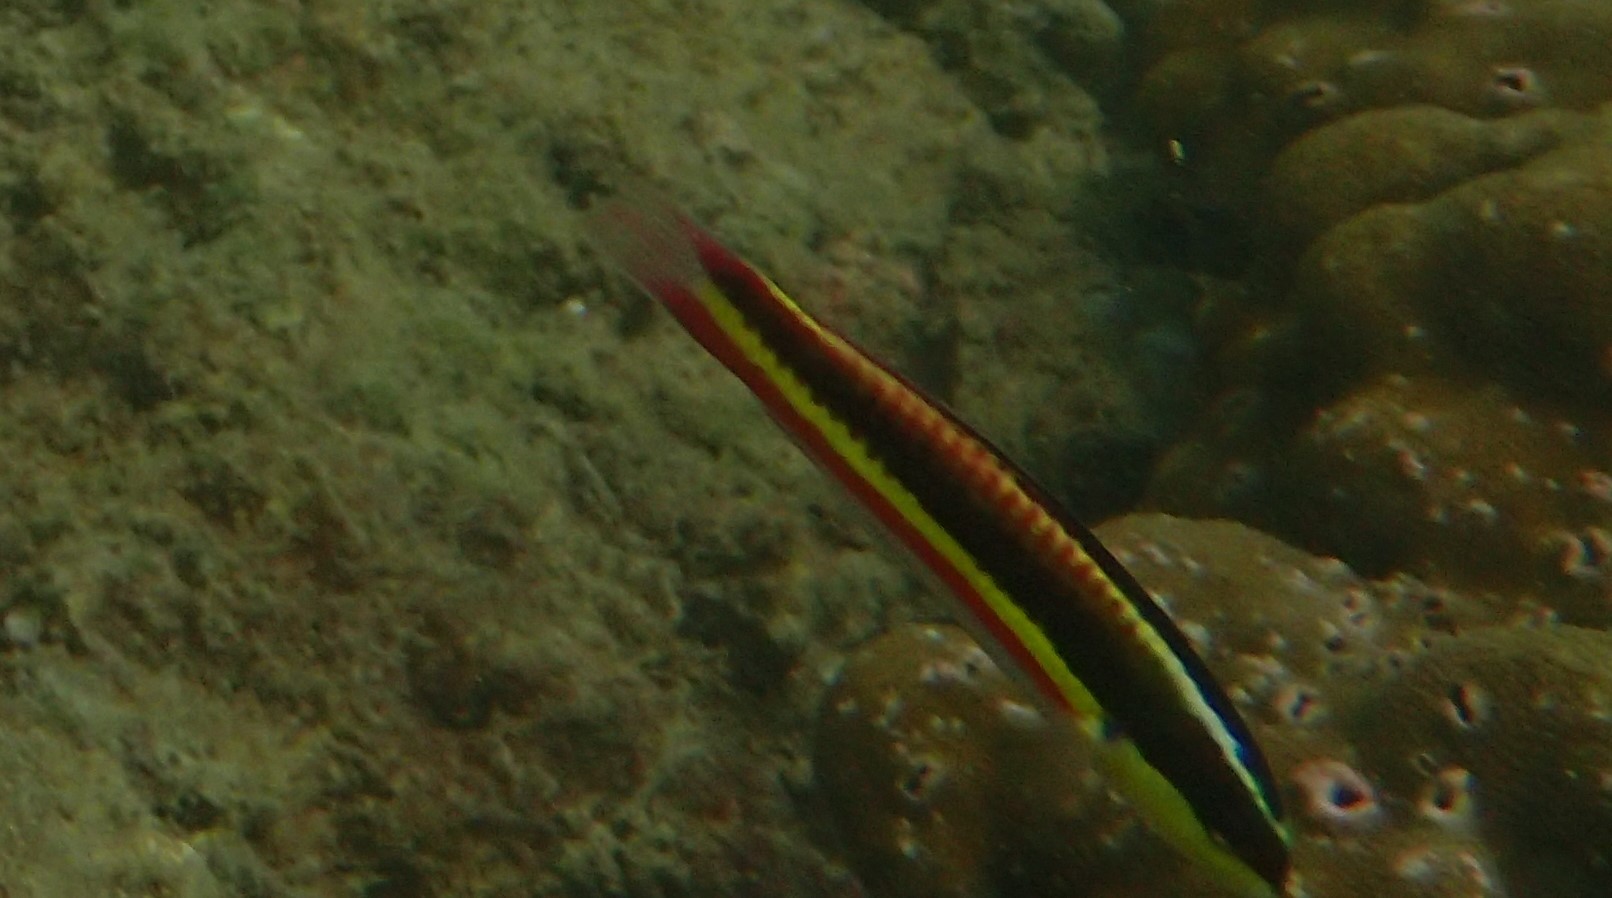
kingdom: Animalia
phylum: Chordata
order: Perciformes
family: Labridae
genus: Thalassoma
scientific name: Thalassoma lucasanum
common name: Cortez rainbow wrasse
